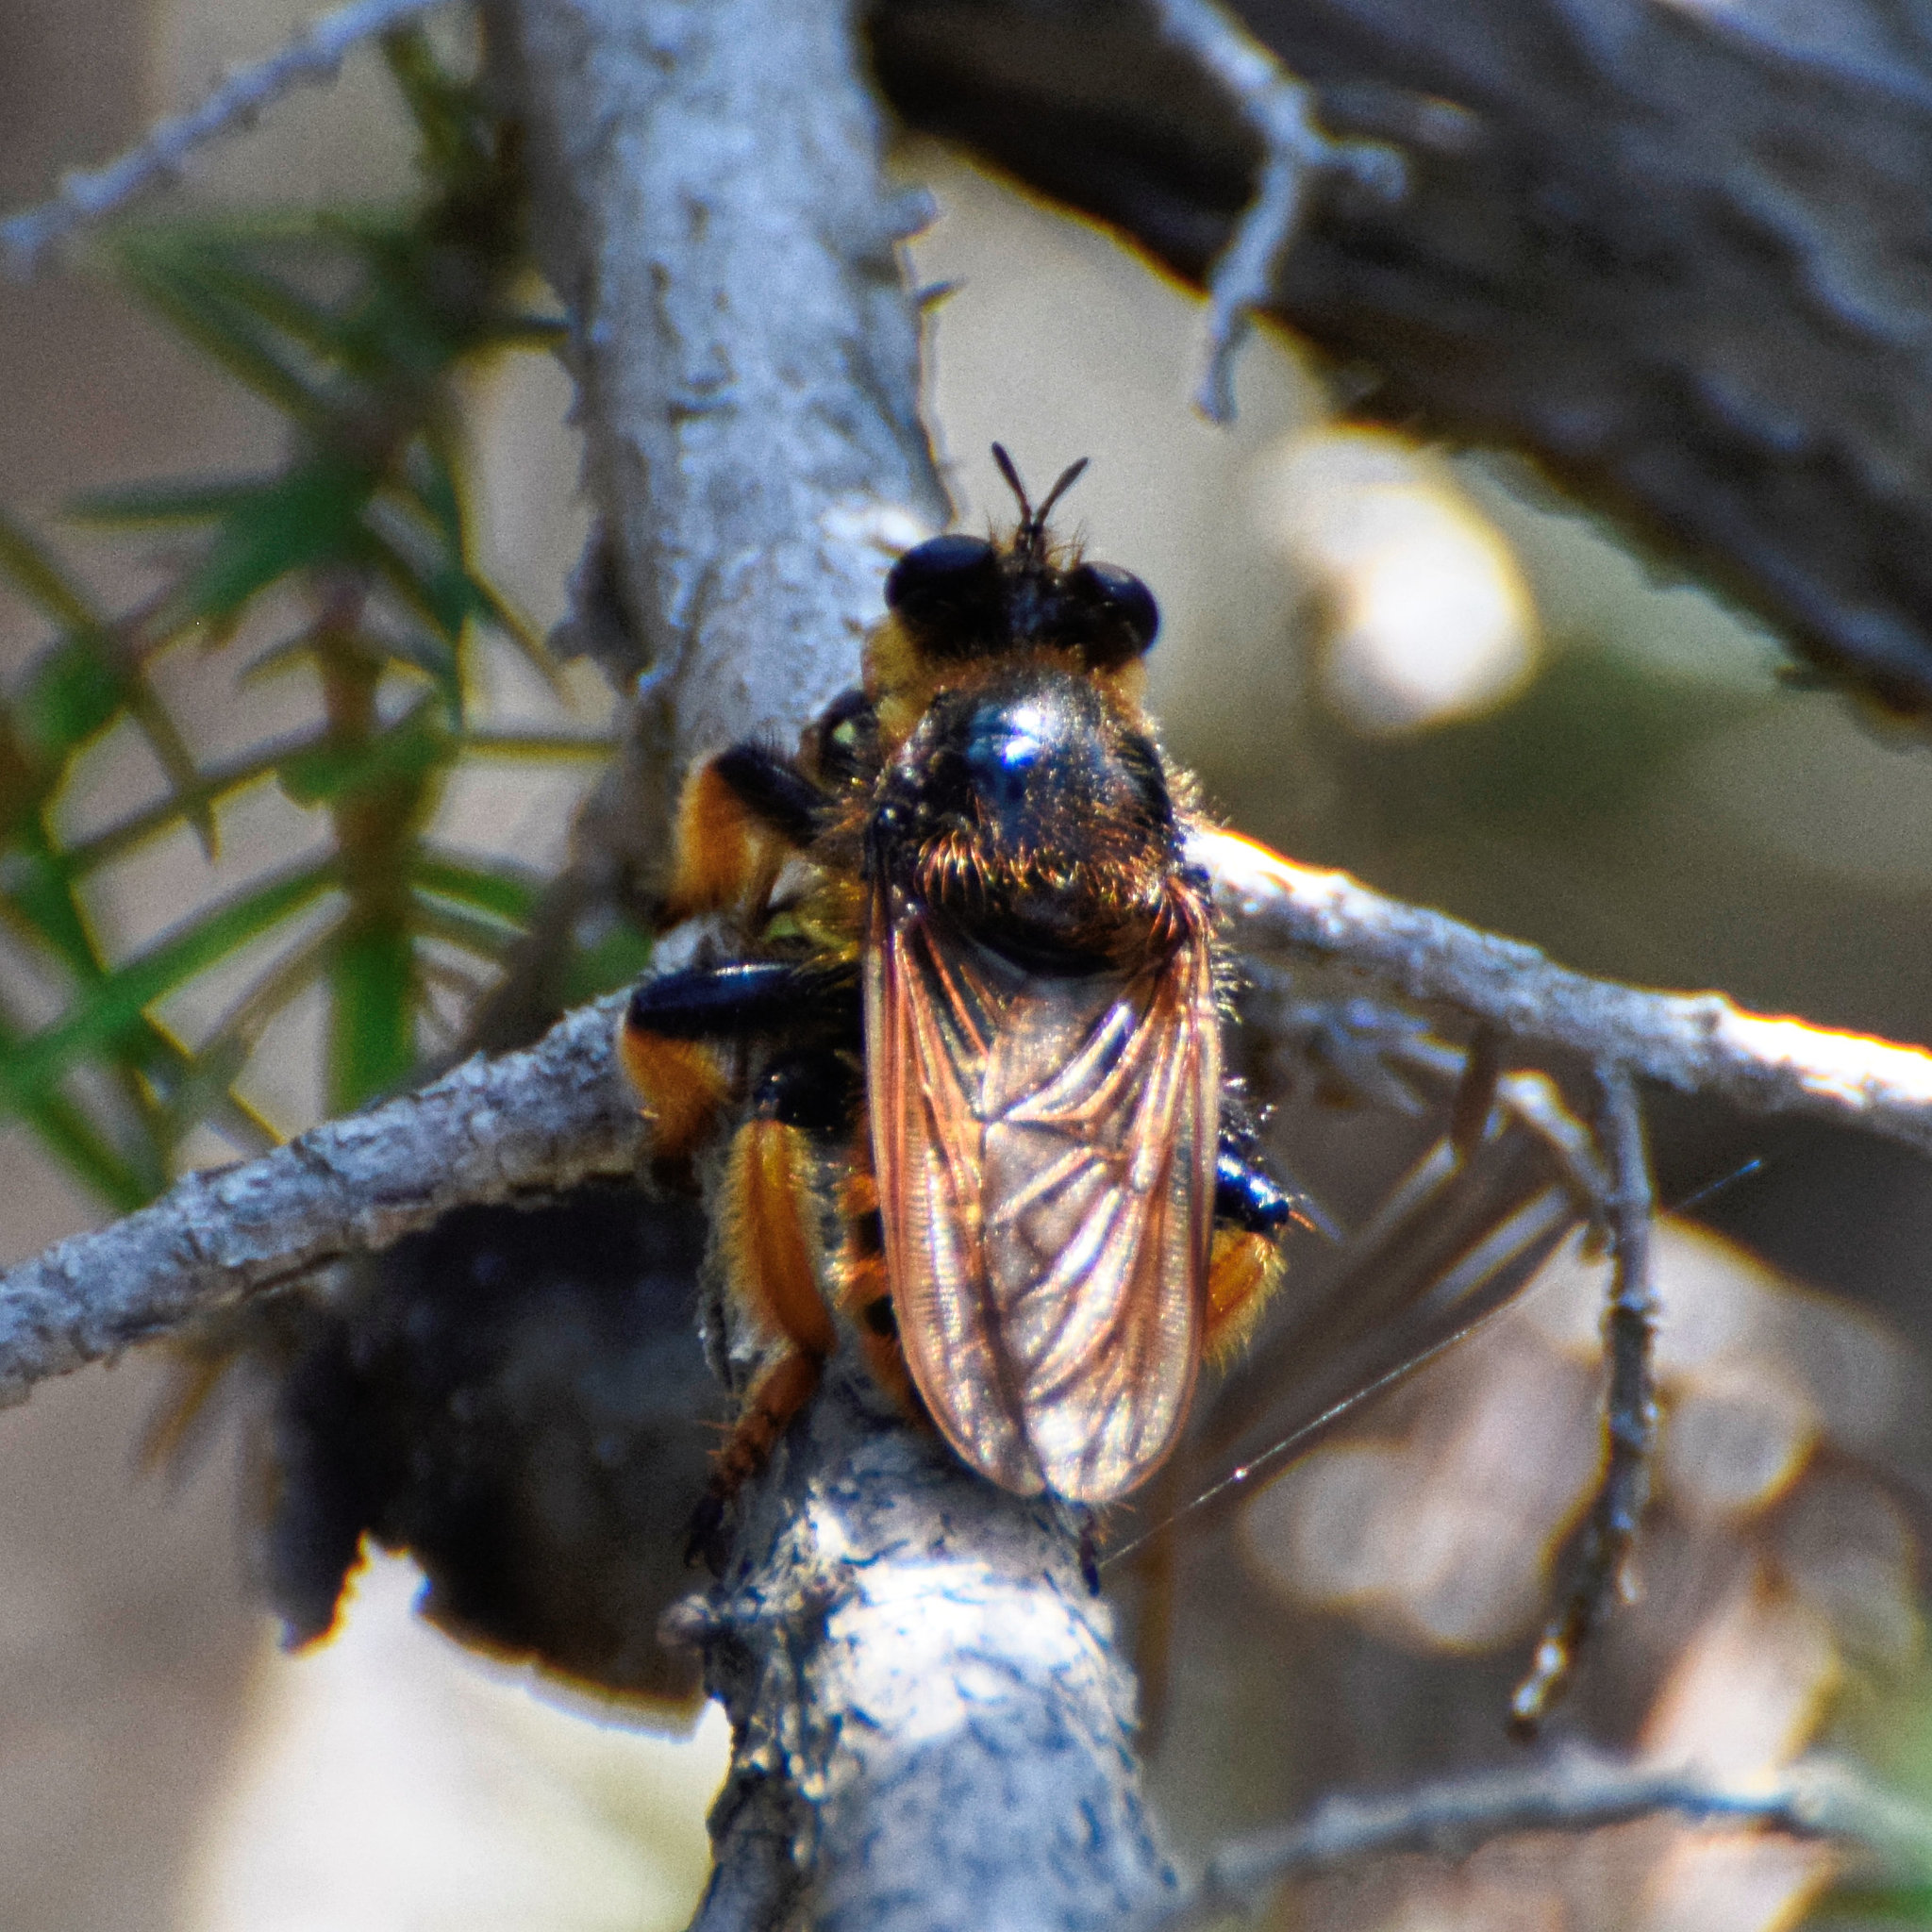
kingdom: Animalia
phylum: Arthropoda
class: Insecta
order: Diptera
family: Asilidae
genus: Pogonosoma
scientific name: Pogonosoma maroccanum
